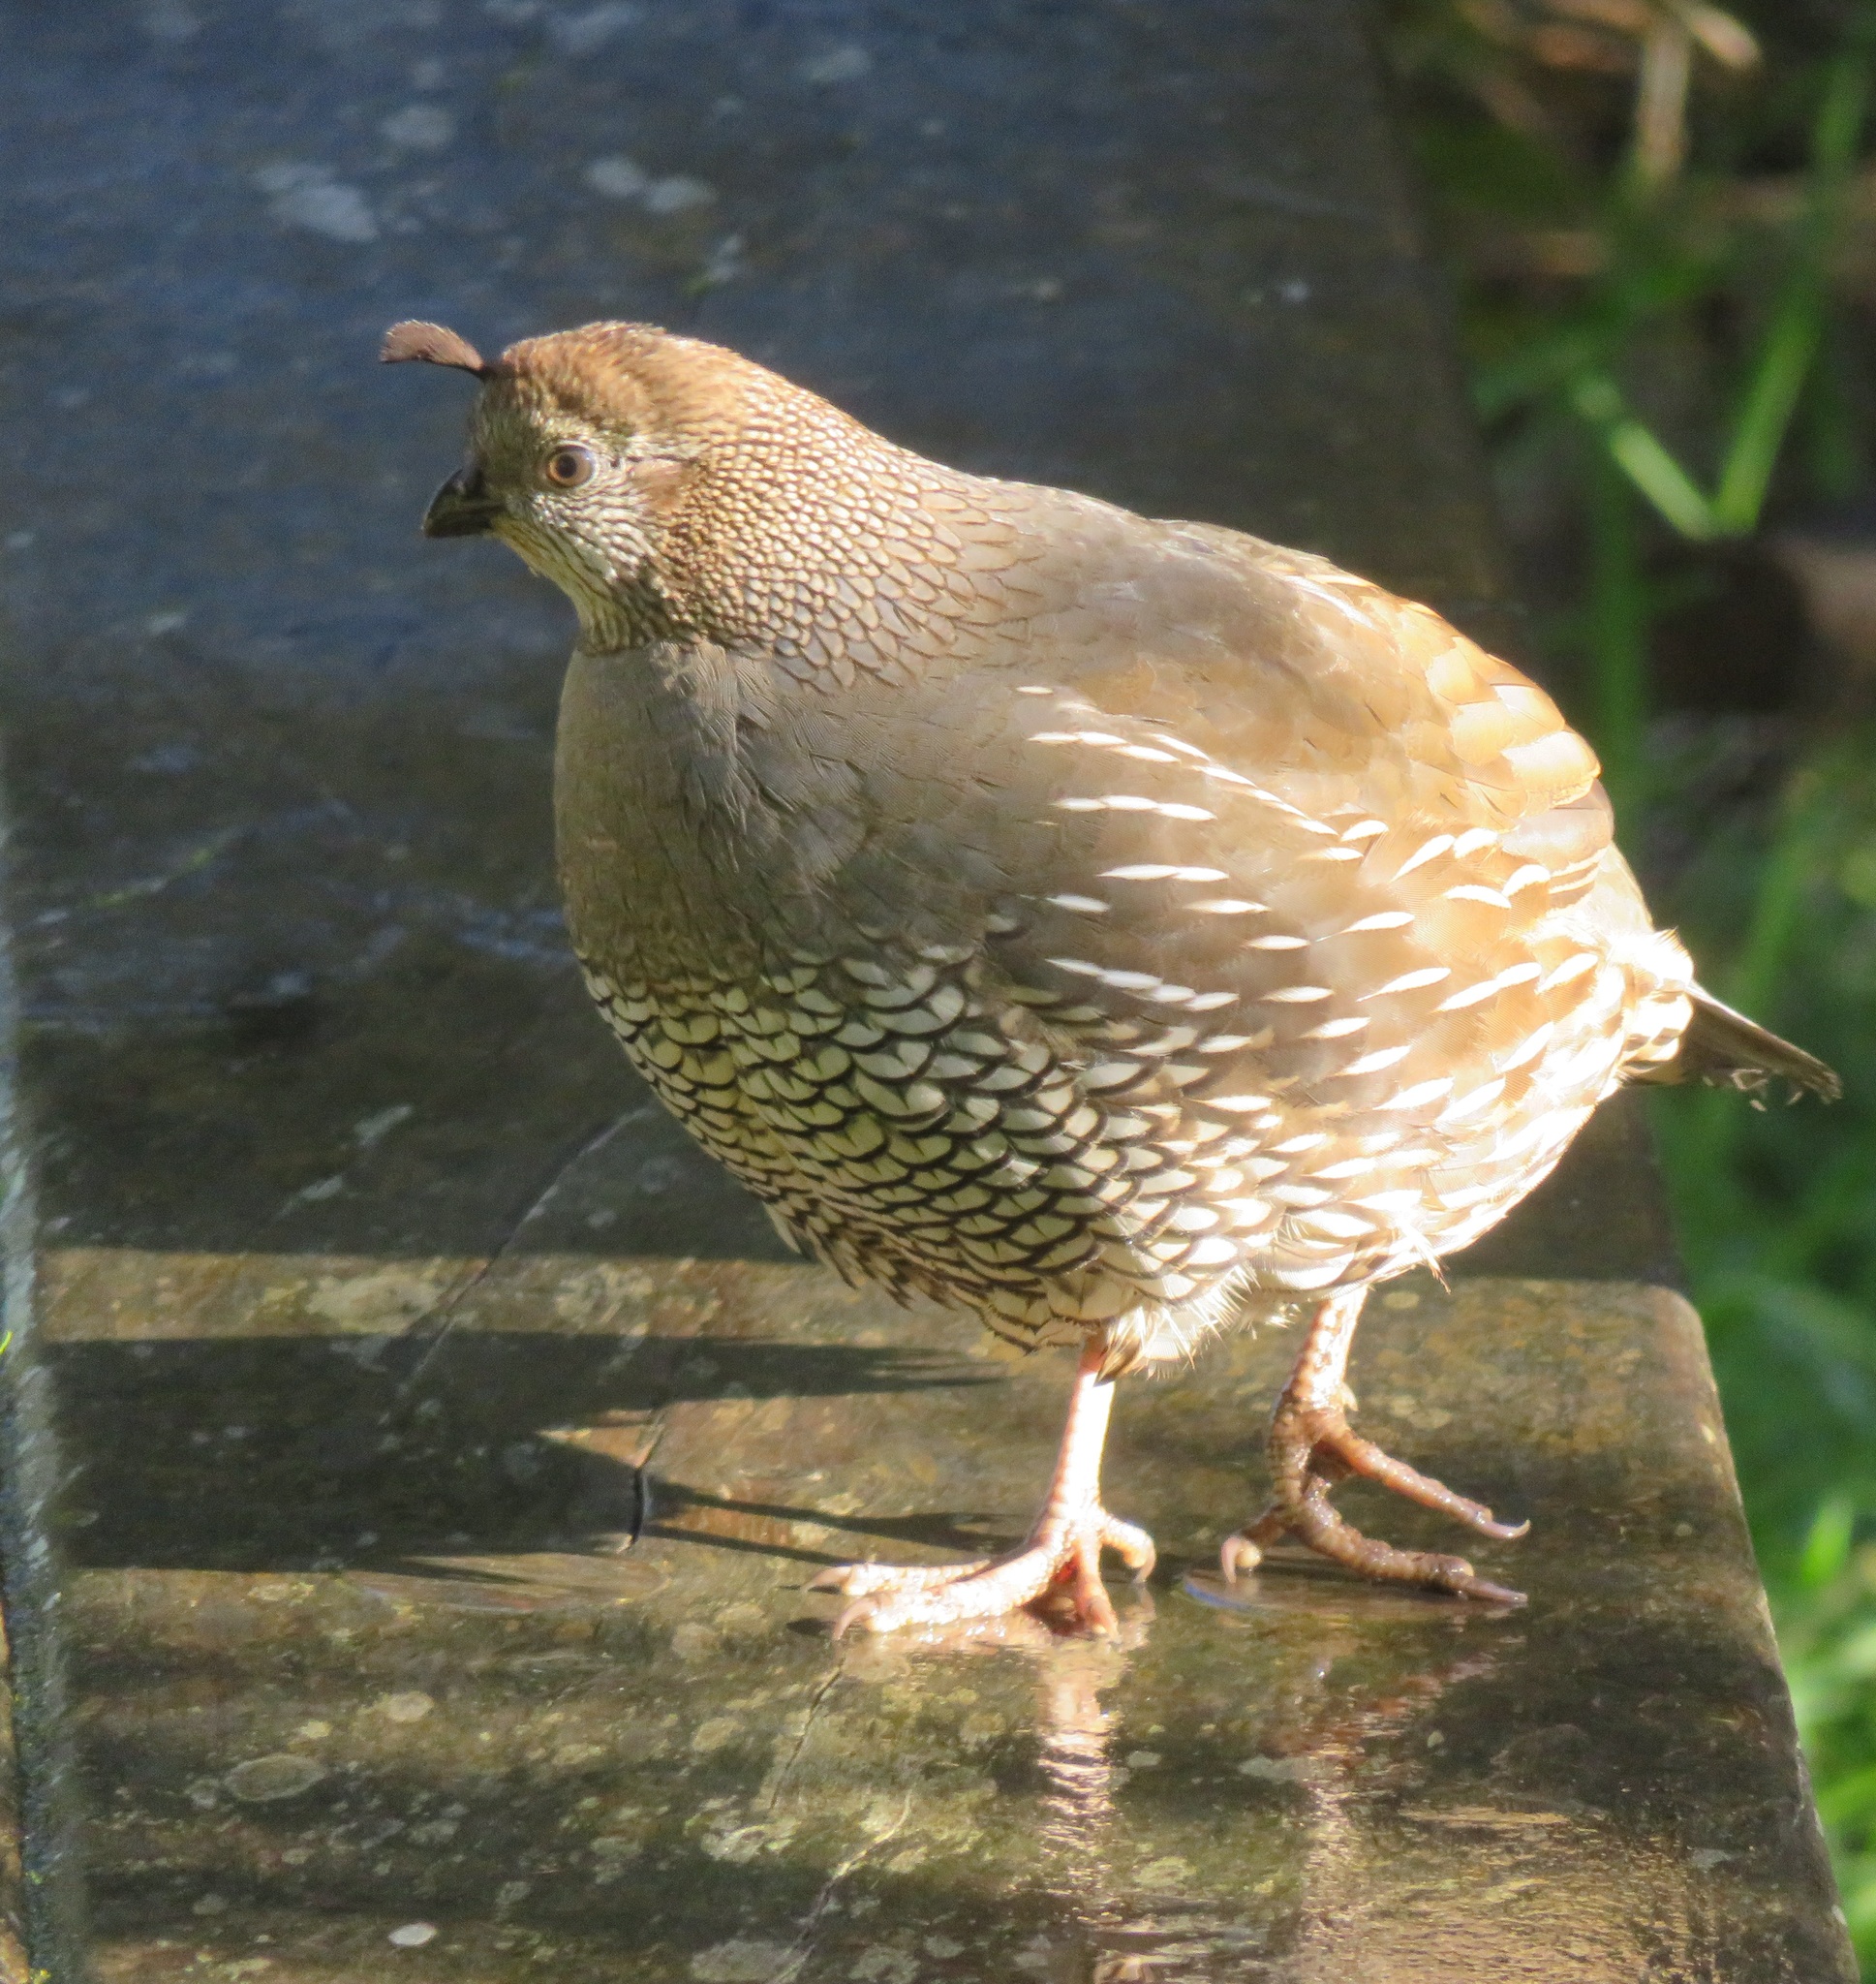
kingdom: Animalia
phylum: Chordata
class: Aves
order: Galliformes
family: Odontophoridae
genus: Callipepla
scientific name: Callipepla californica
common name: California quail
